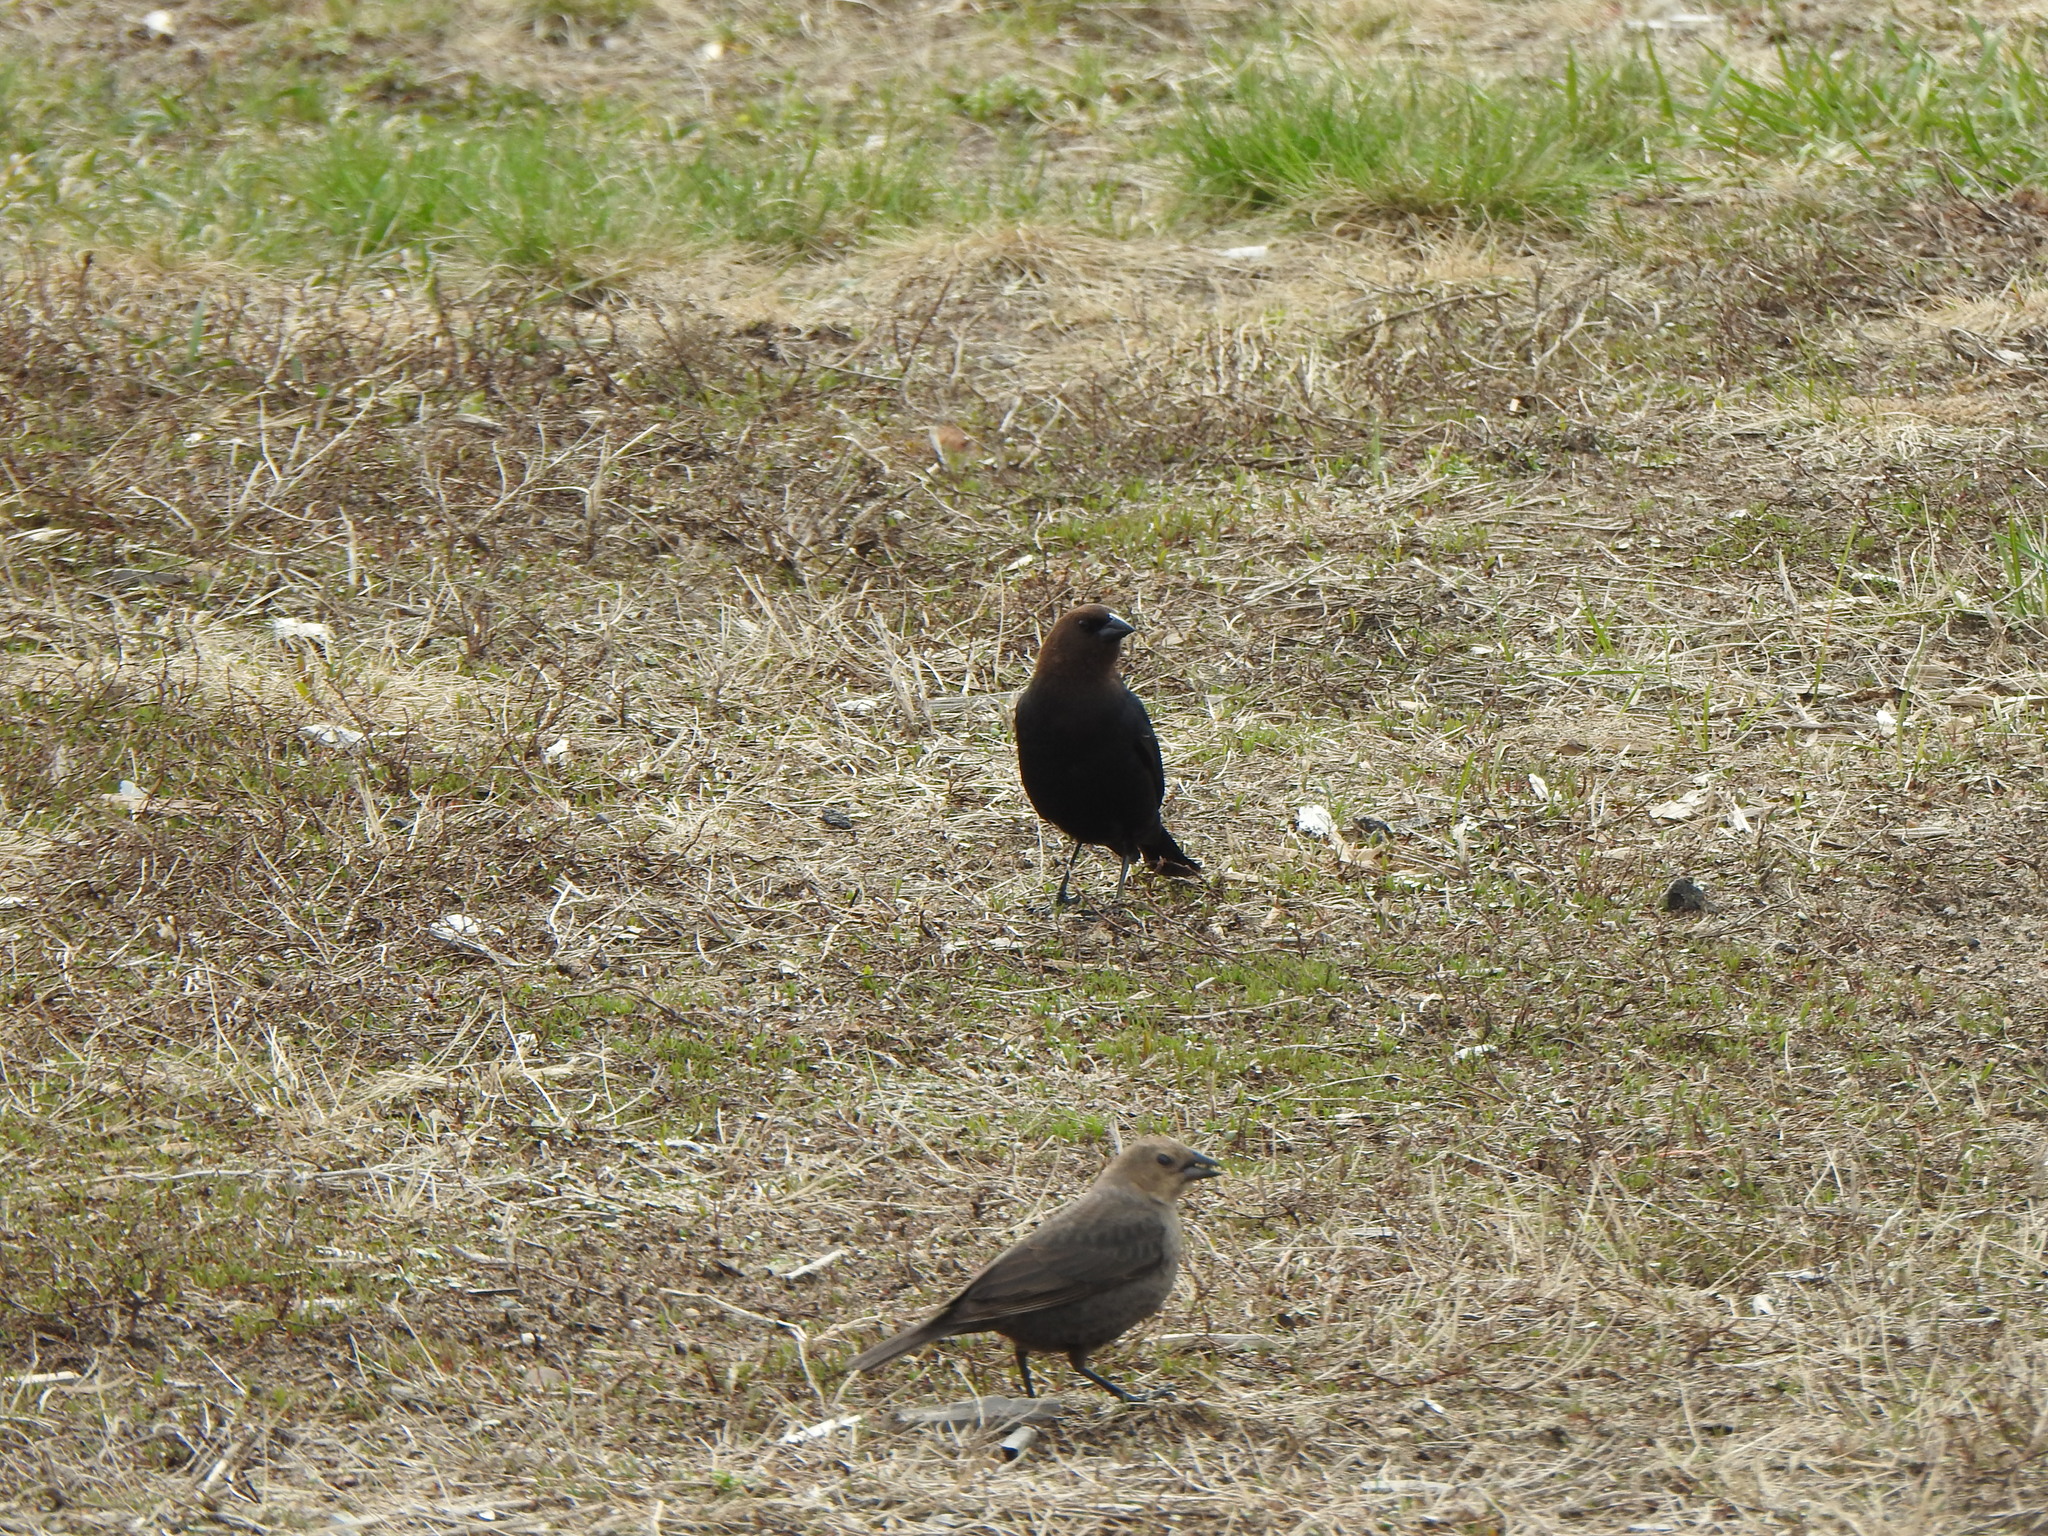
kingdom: Animalia
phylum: Chordata
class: Aves
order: Passeriformes
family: Icteridae
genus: Molothrus
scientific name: Molothrus ater
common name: Brown-headed cowbird
